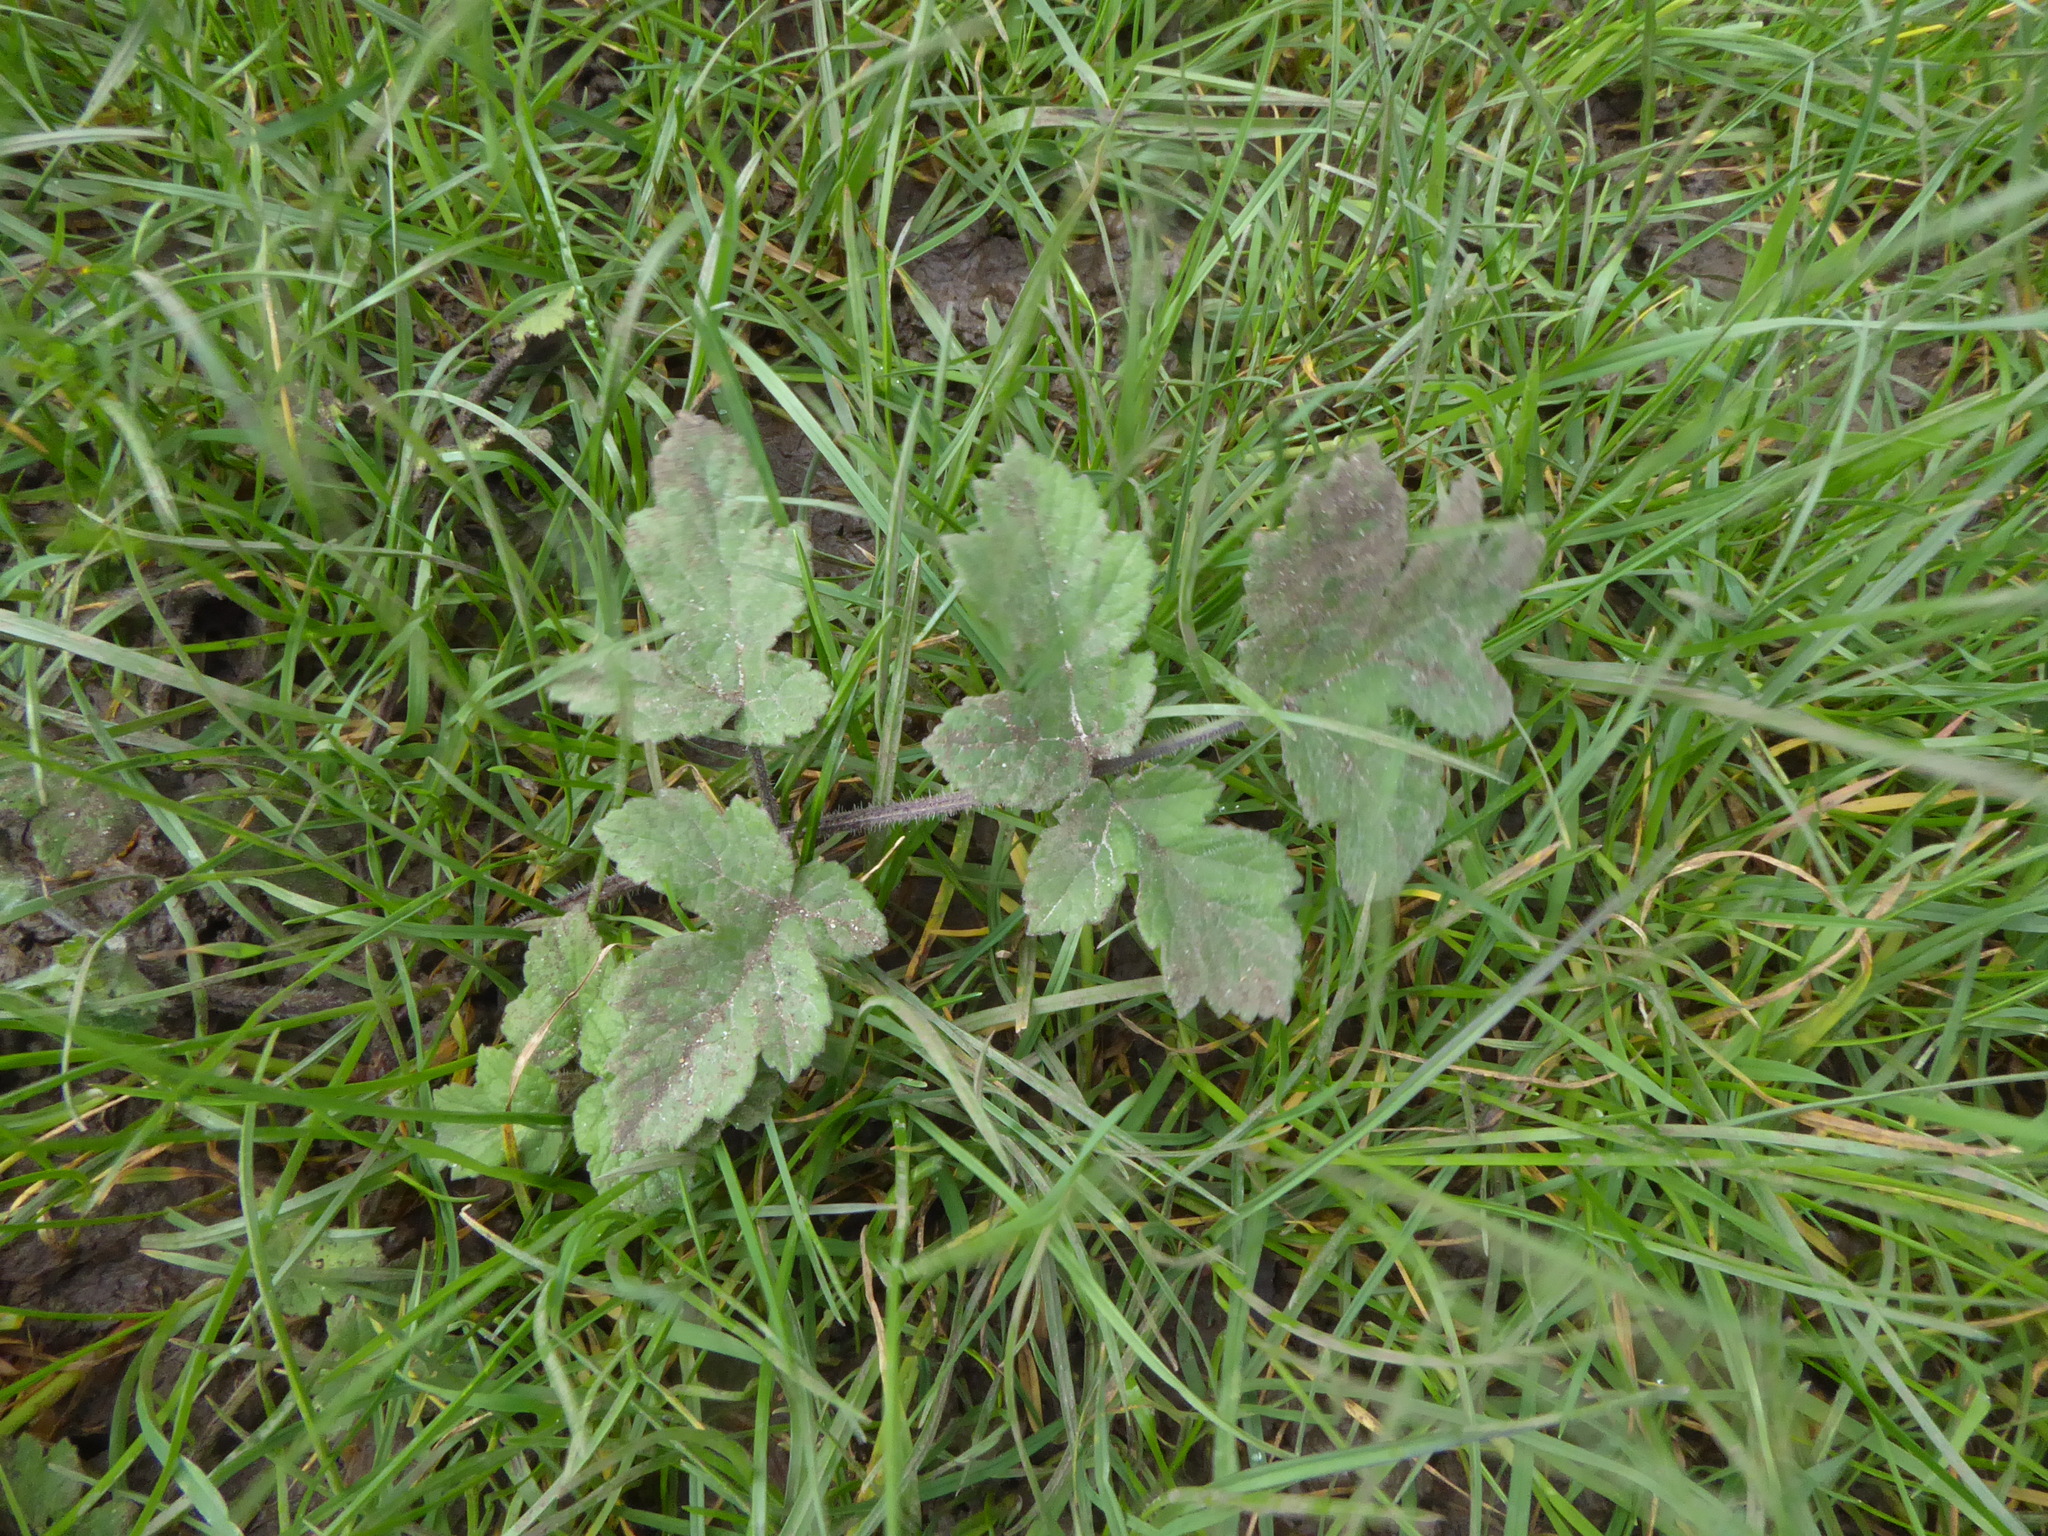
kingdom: Plantae
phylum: Tracheophyta
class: Magnoliopsida
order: Apiales
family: Apiaceae
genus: Heracleum
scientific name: Heracleum sphondylium
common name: Hogweed
